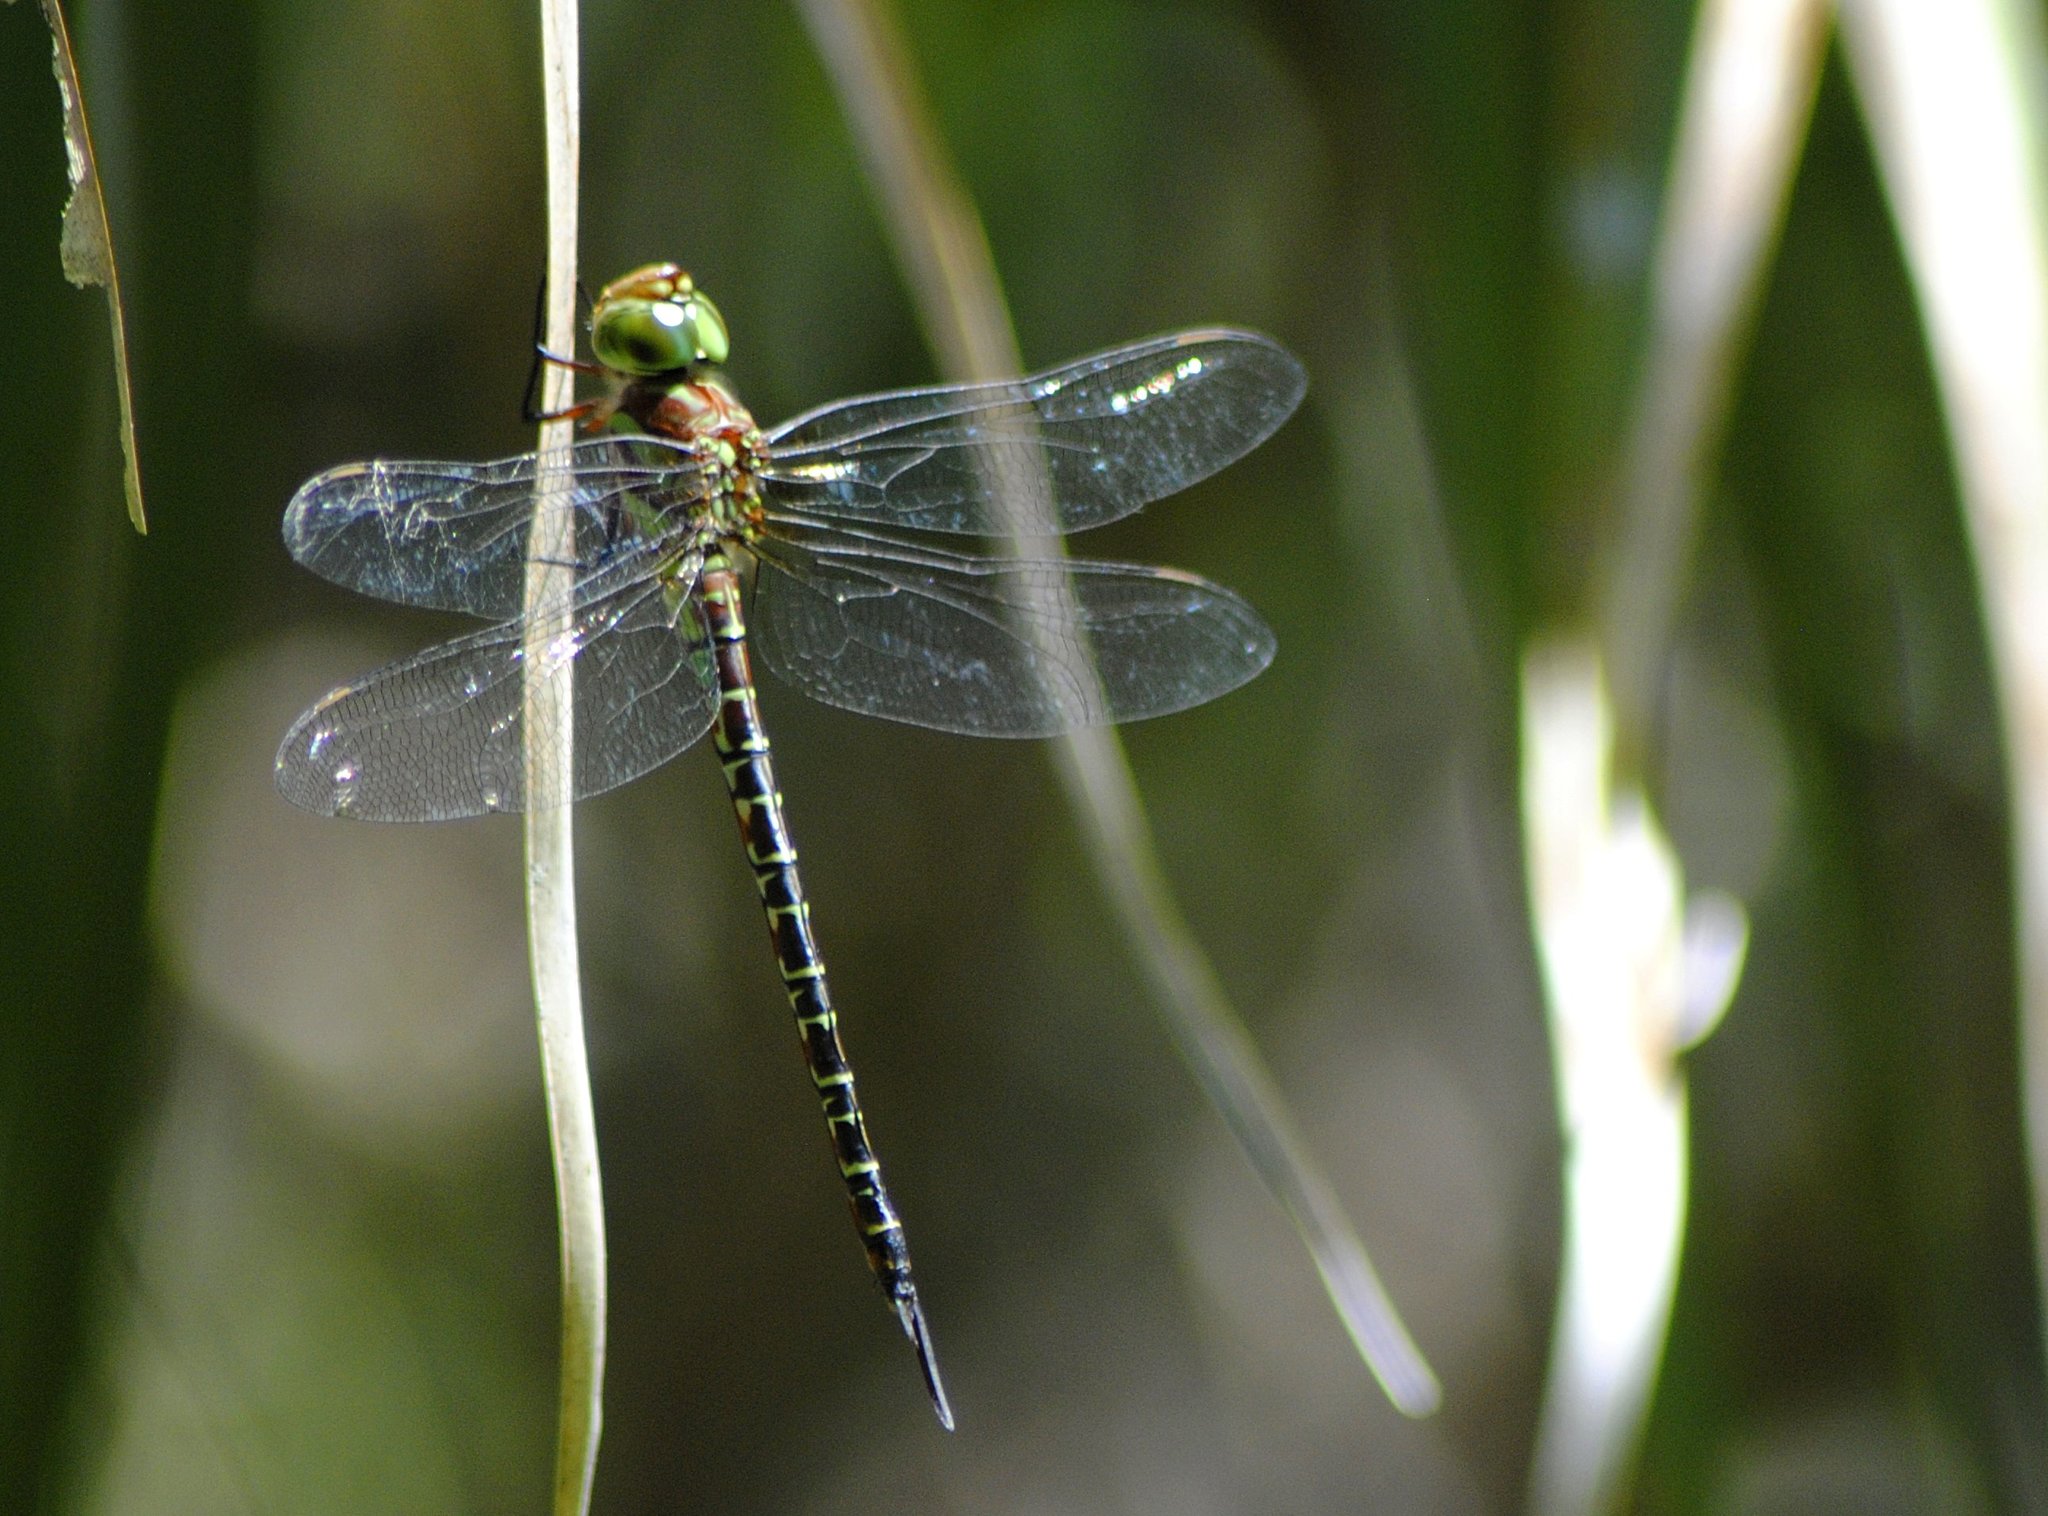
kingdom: Animalia
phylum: Arthropoda
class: Insecta
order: Odonata
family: Aeshnidae
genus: Coryphaeschna
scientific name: Coryphaeschna ingens
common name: Regal darner
